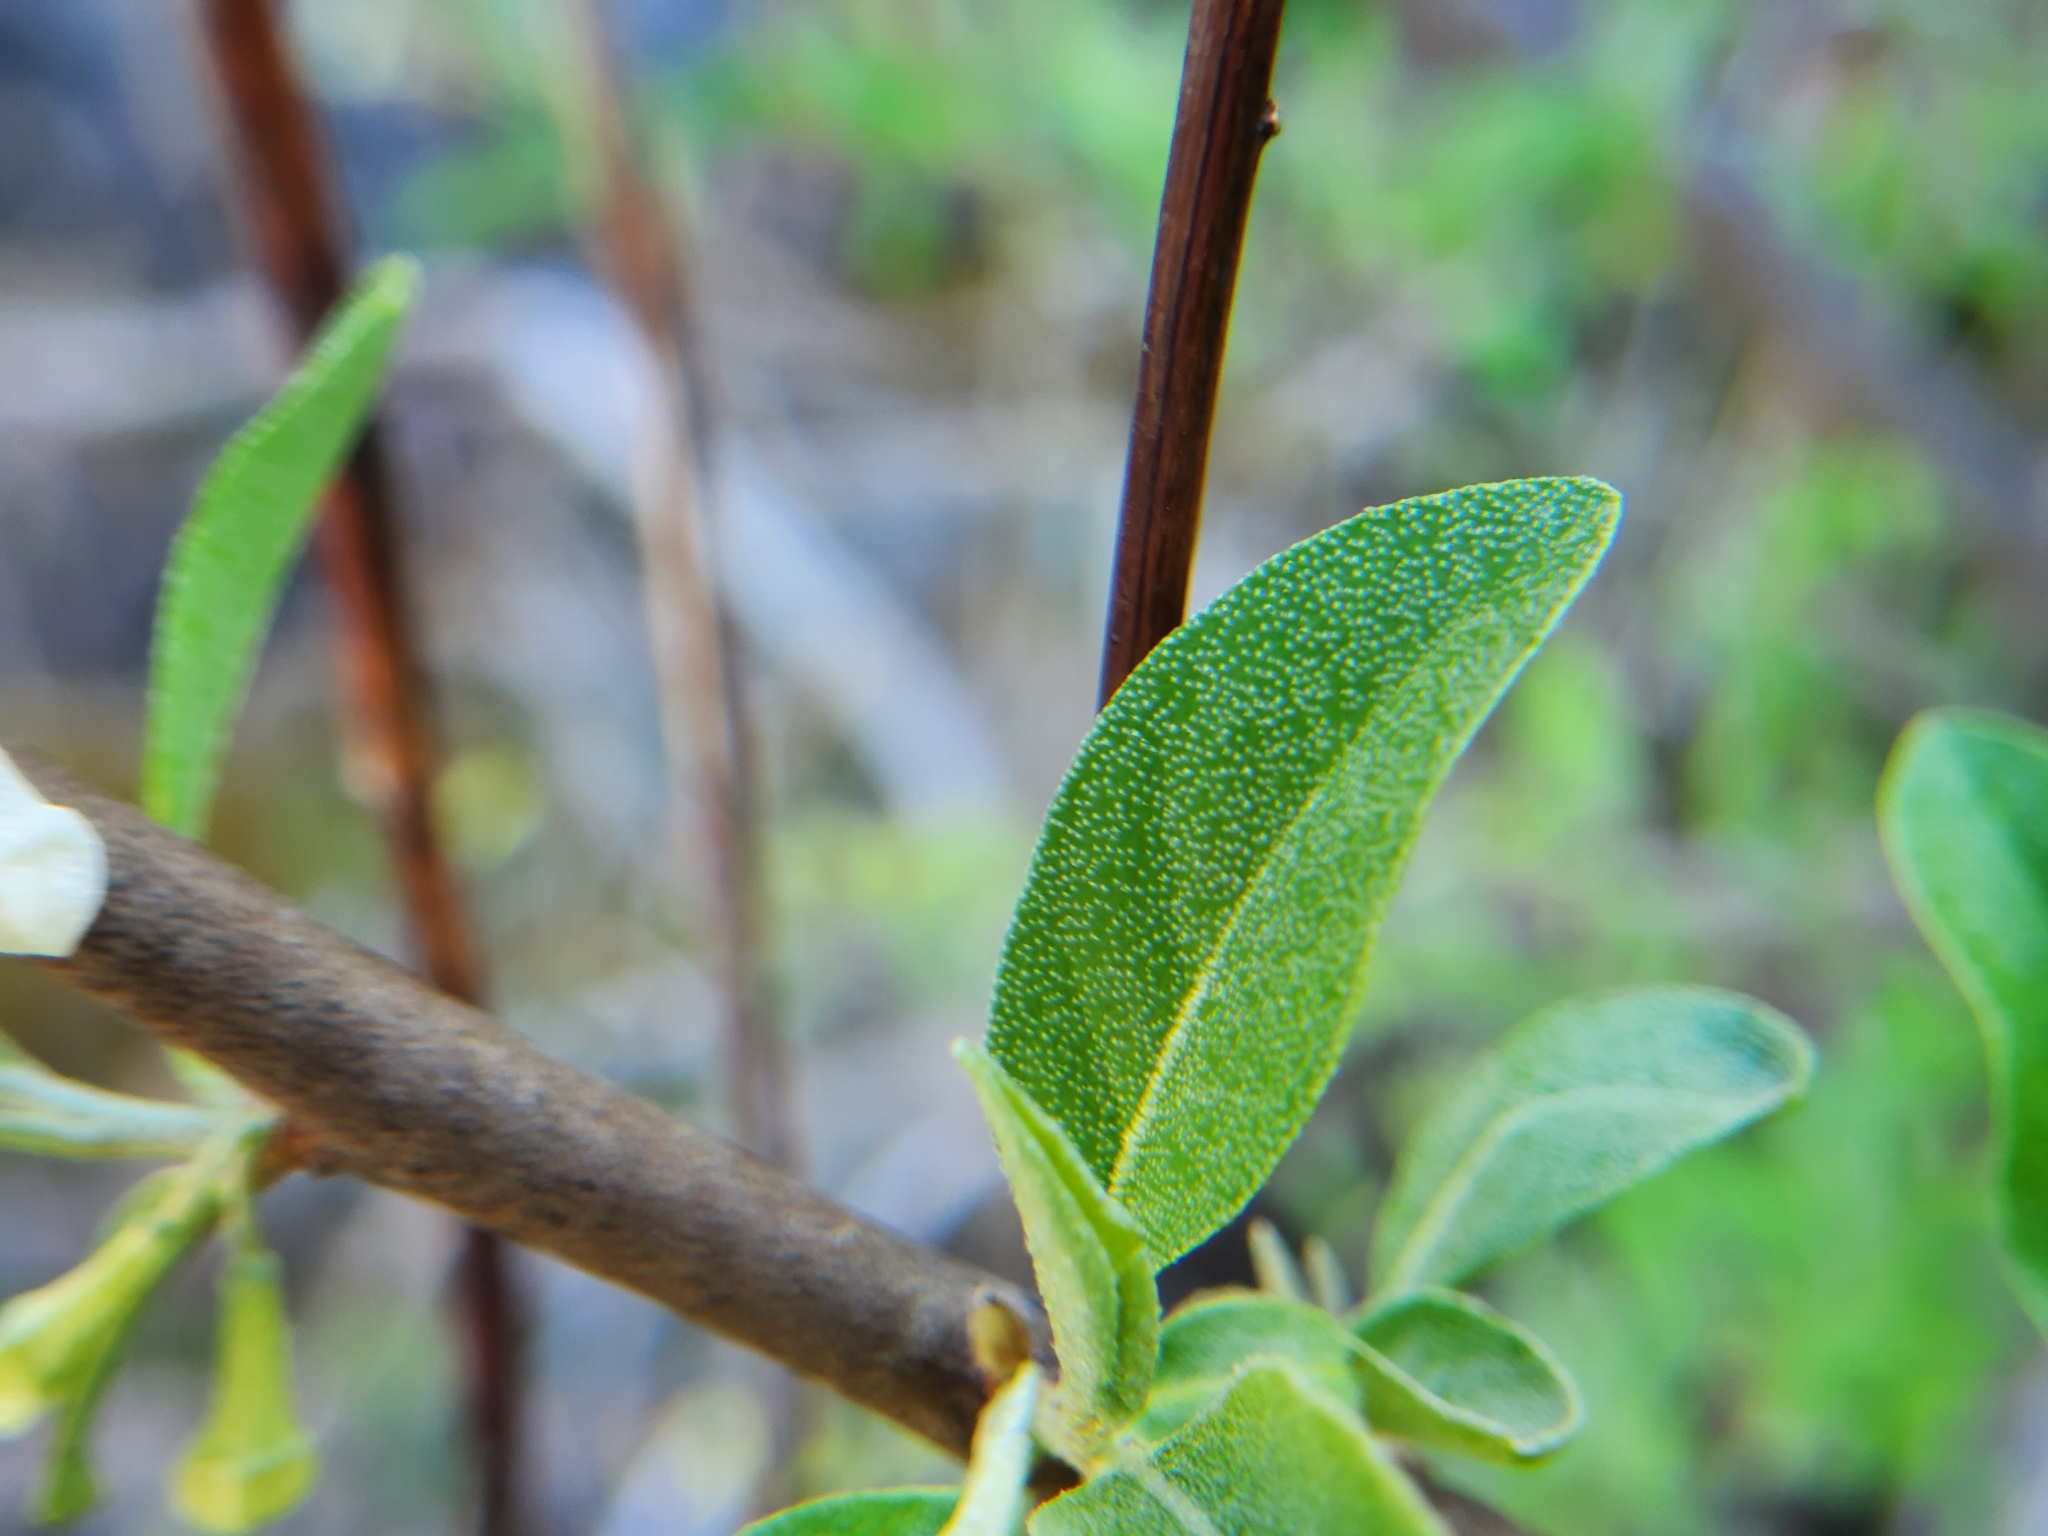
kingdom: Plantae
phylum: Tracheophyta
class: Magnoliopsida
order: Rosales
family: Elaeagnaceae
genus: Elaeagnus
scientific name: Elaeagnus umbellata
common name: Autumn olive
